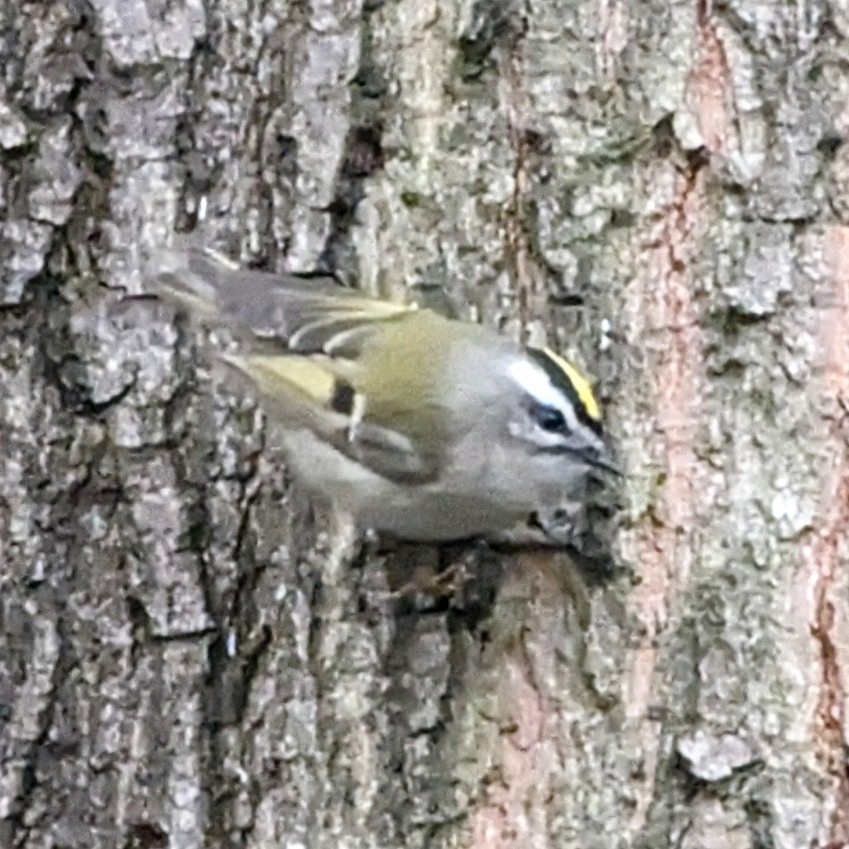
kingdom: Animalia
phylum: Chordata
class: Aves
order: Passeriformes
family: Regulidae
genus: Regulus
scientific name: Regulus satrapa
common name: Golden-crowned kinglet
